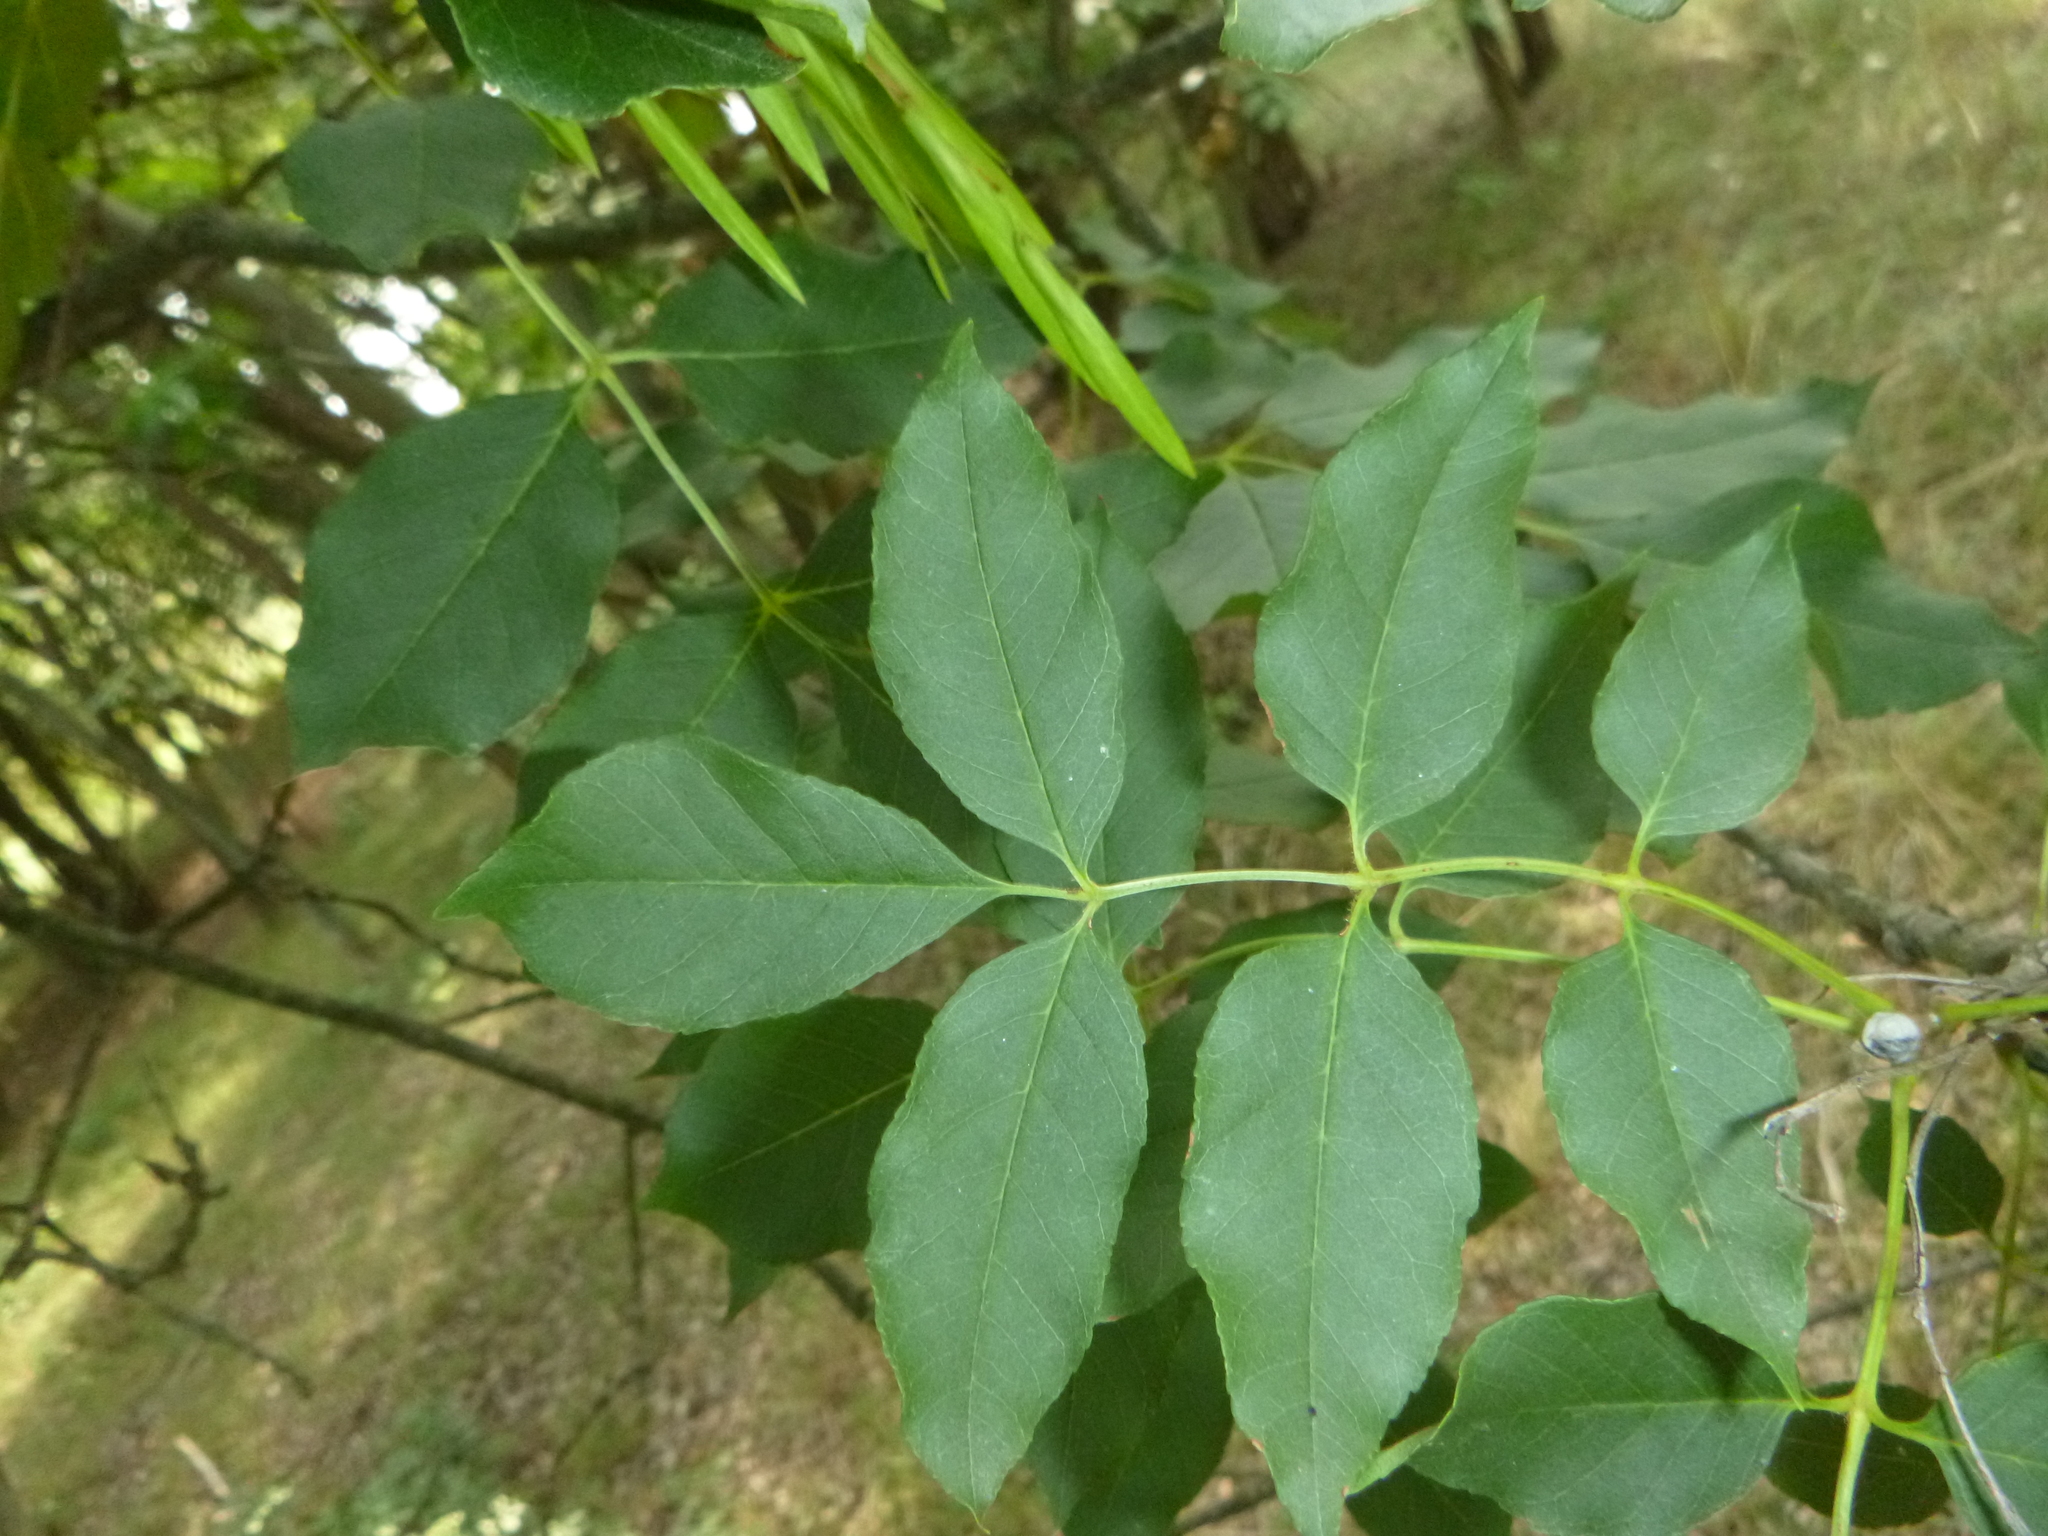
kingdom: Plantae
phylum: Tracheophyta
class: Magnoliopsida
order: Lamiales
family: Oleaceae
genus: Fraxinus
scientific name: Fraxinus ornus
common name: Manna ash
